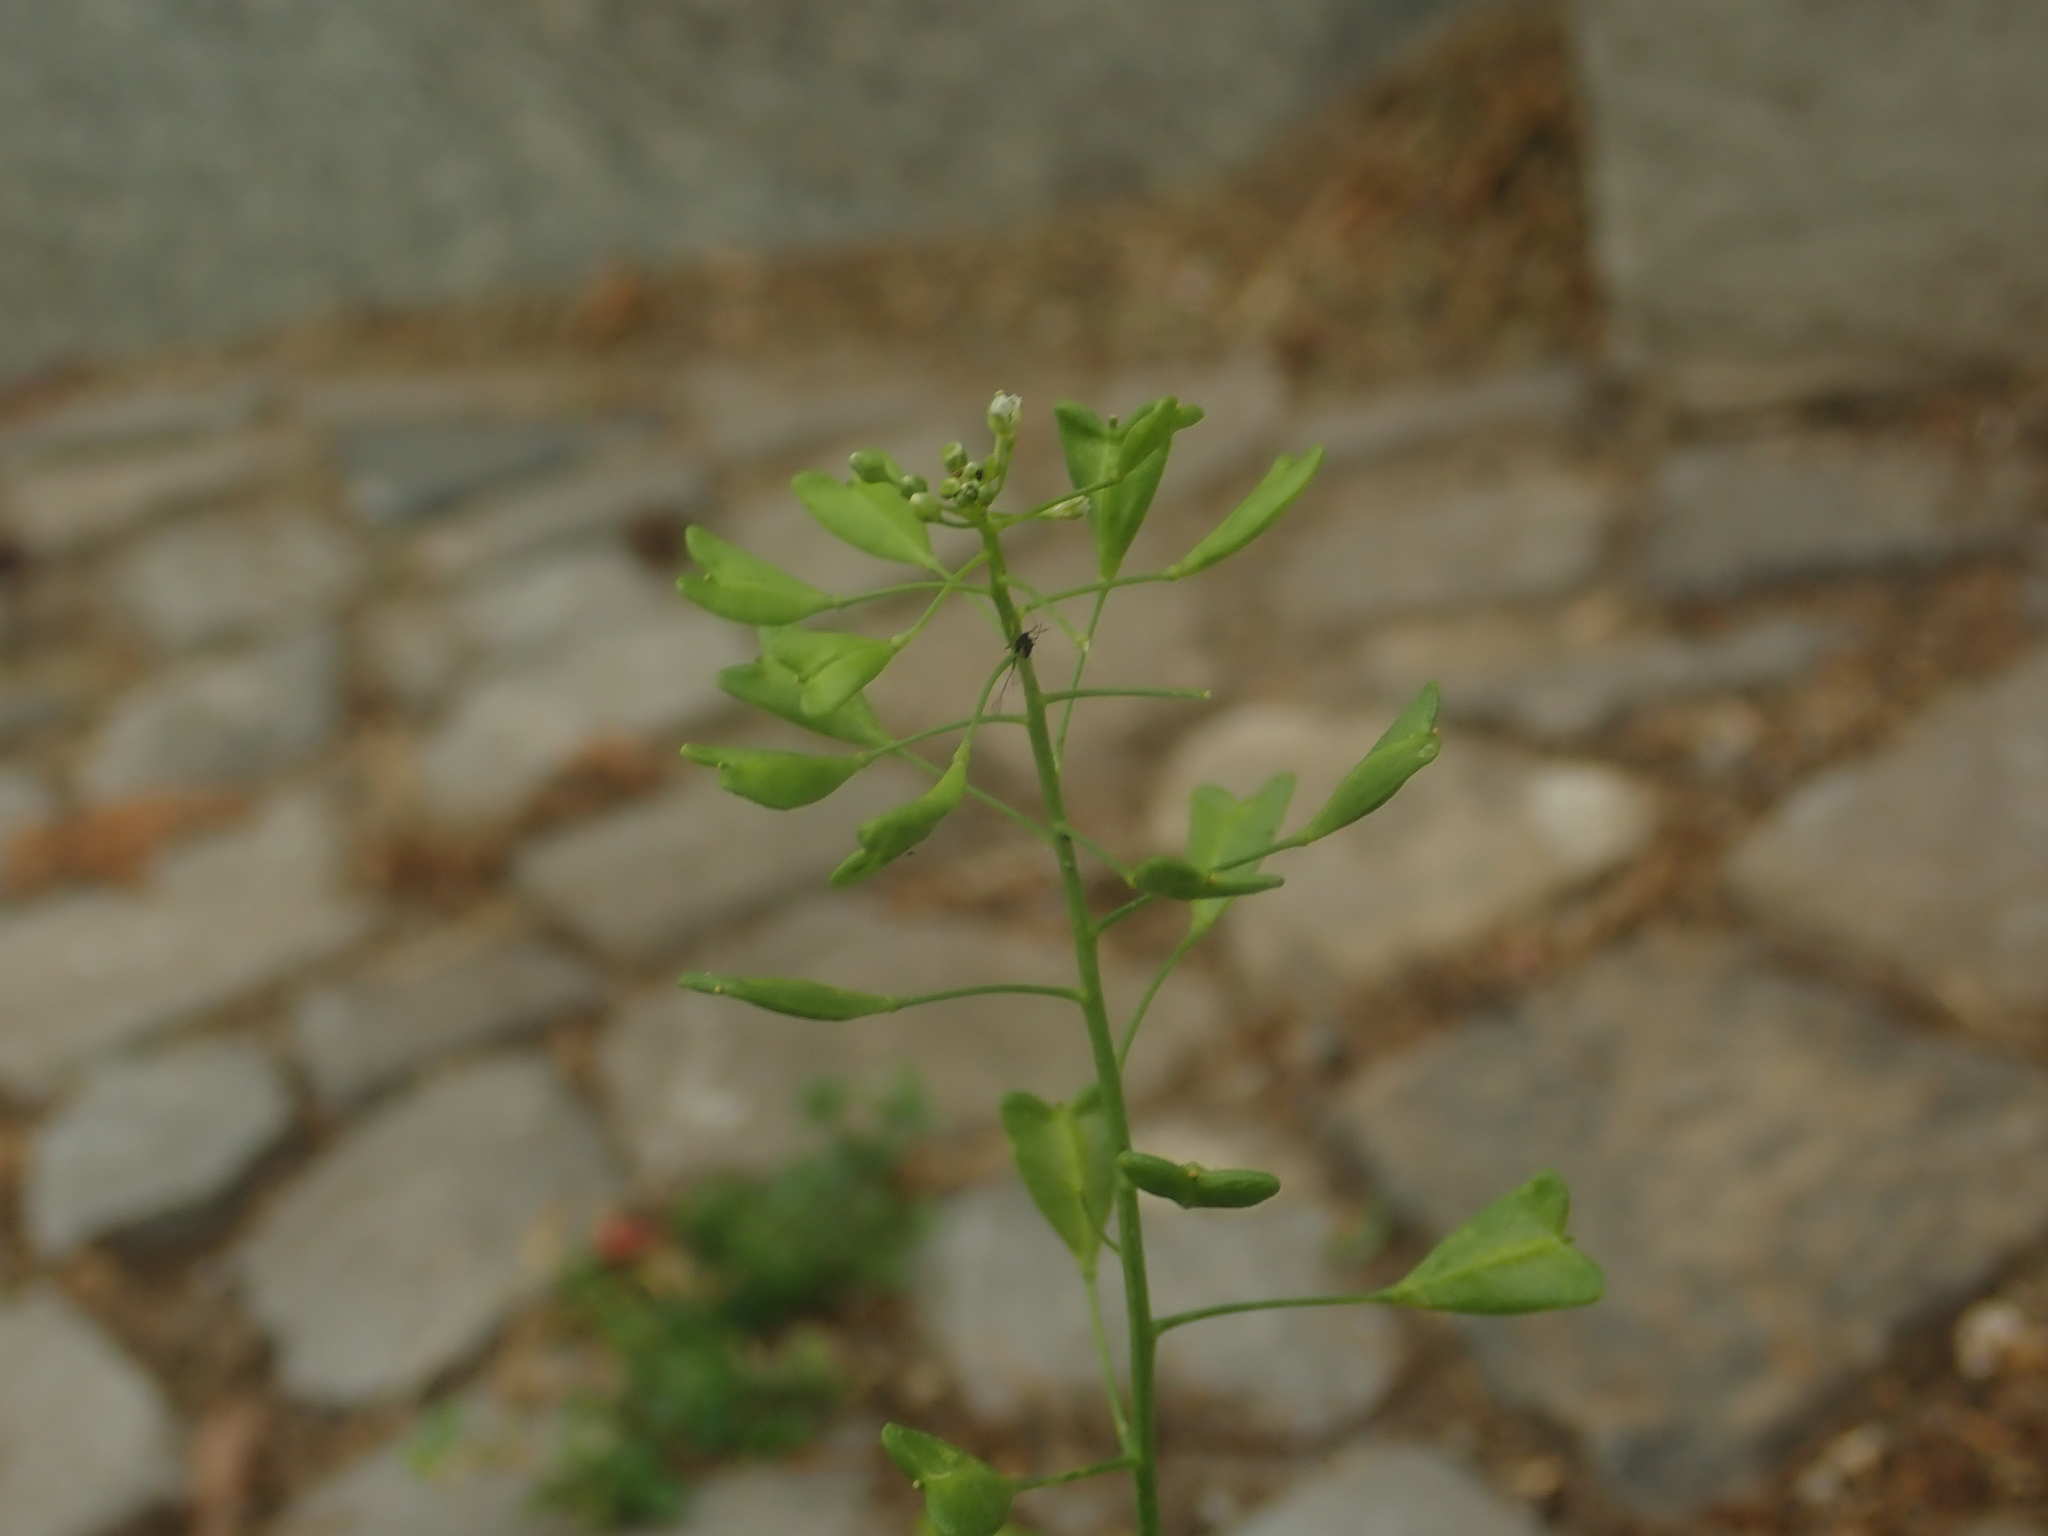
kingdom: Plantae
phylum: Tracheophyta
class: Magnoliopsida
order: Brassicales
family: Brassicaceae
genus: Capsella
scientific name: Capsella bursa-pastoris
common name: Shepherd's purse
